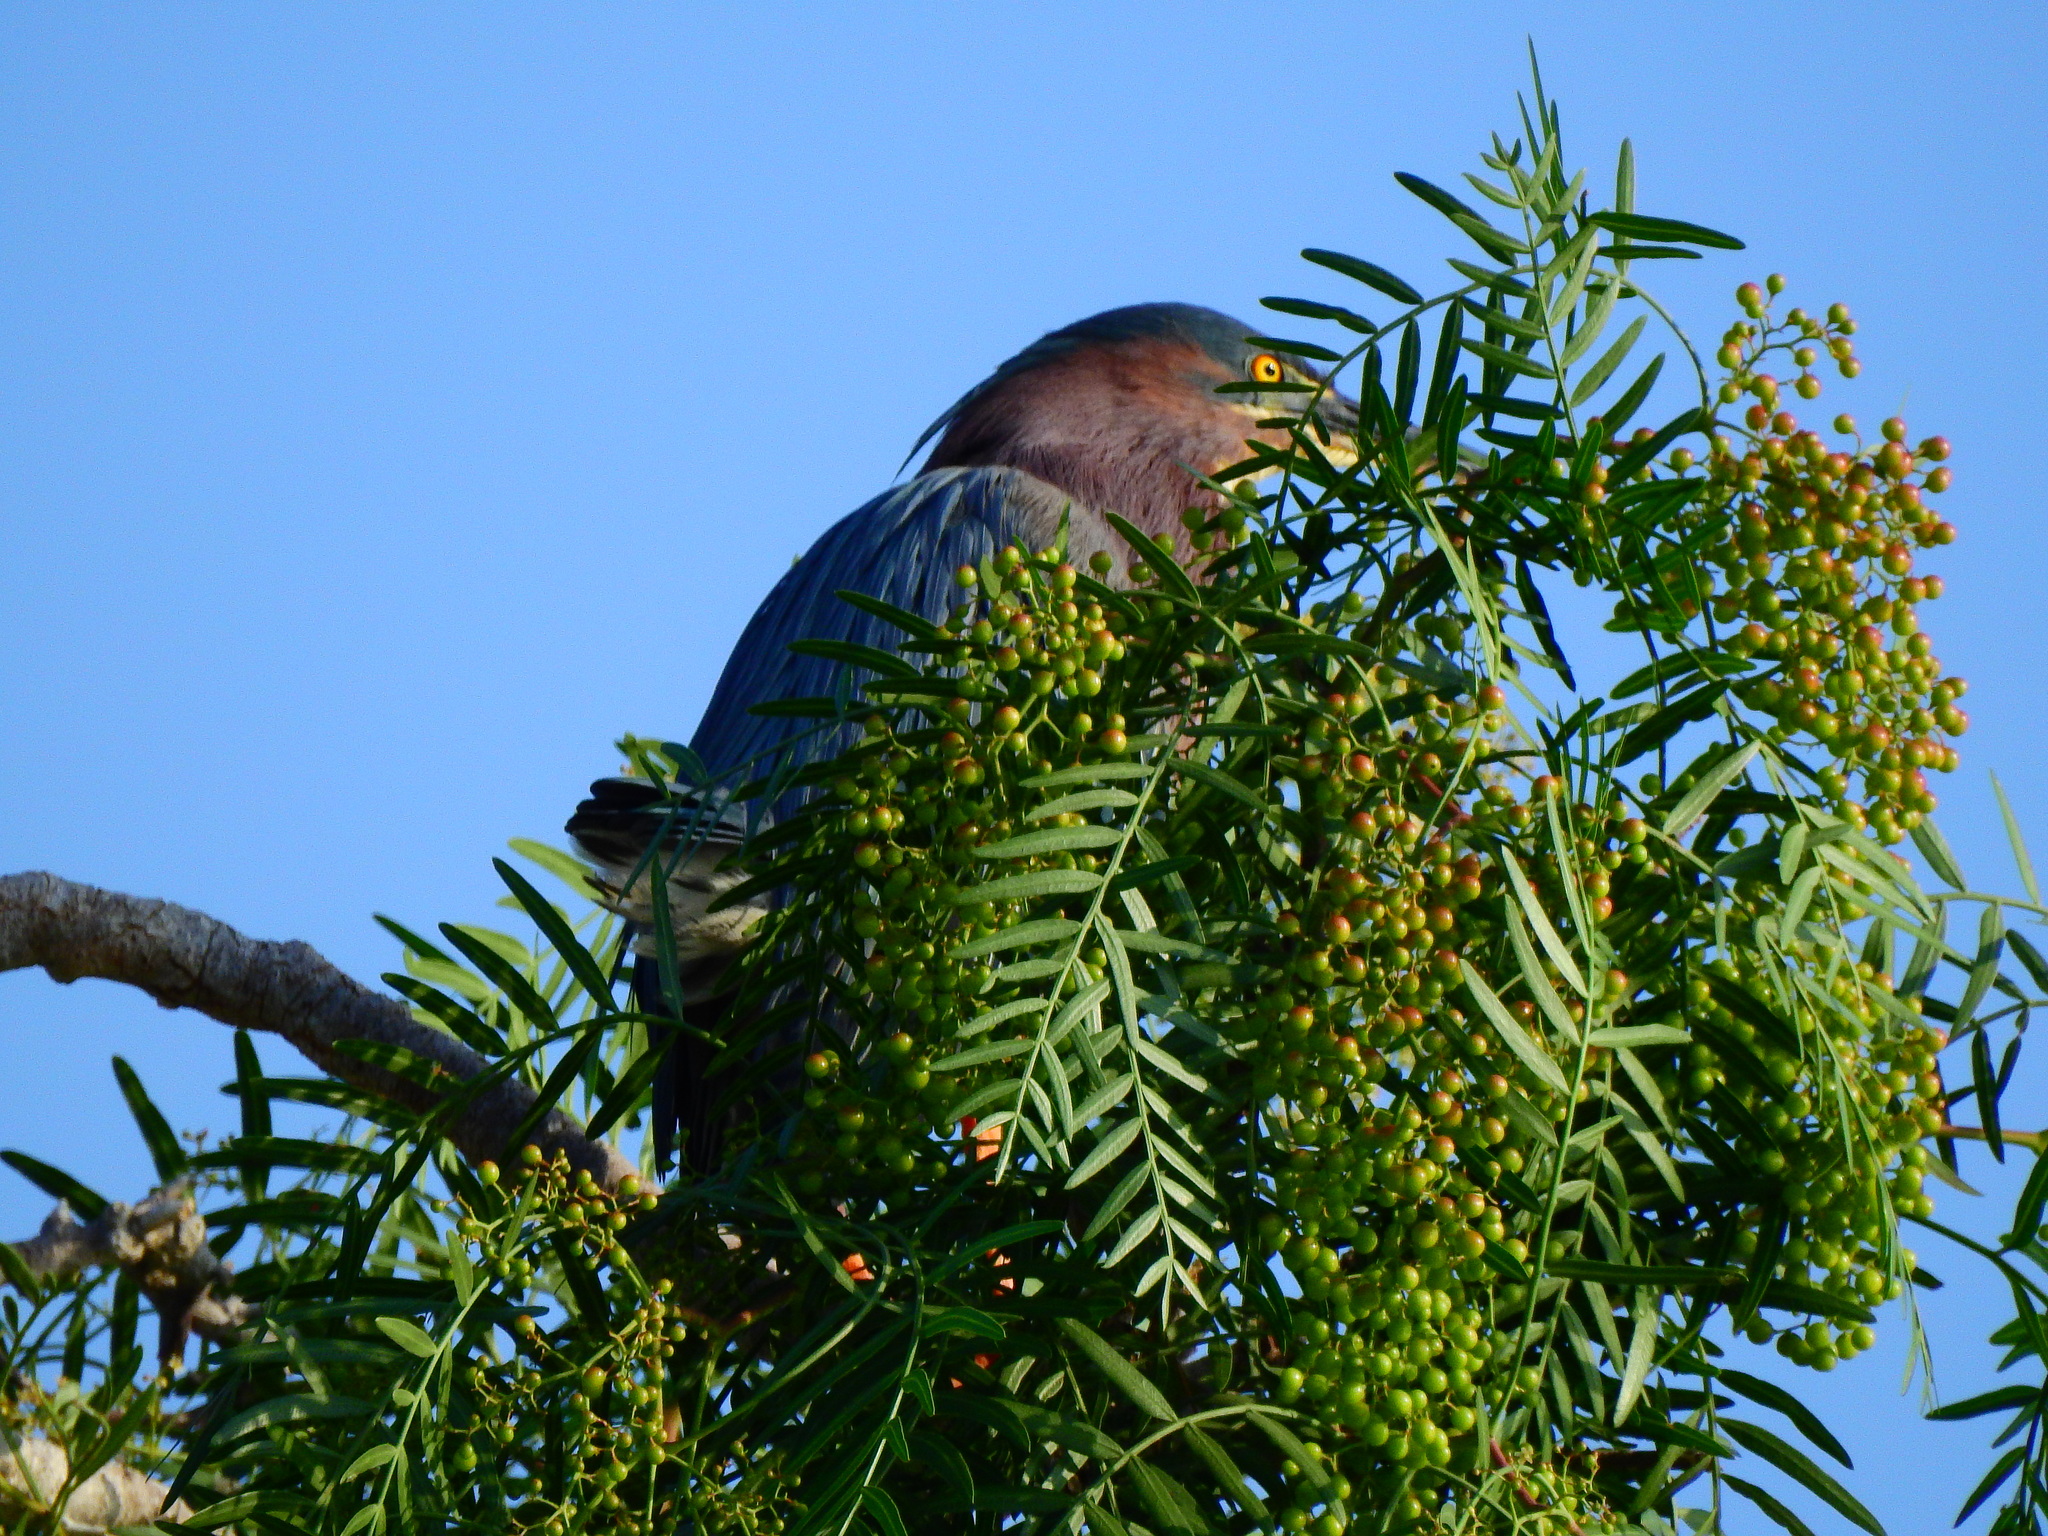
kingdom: Animalia
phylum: Chordata
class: Aves
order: Pelecaniformes
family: Ardeidae
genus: Butorides
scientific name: Butorides virescens
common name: Green heron
